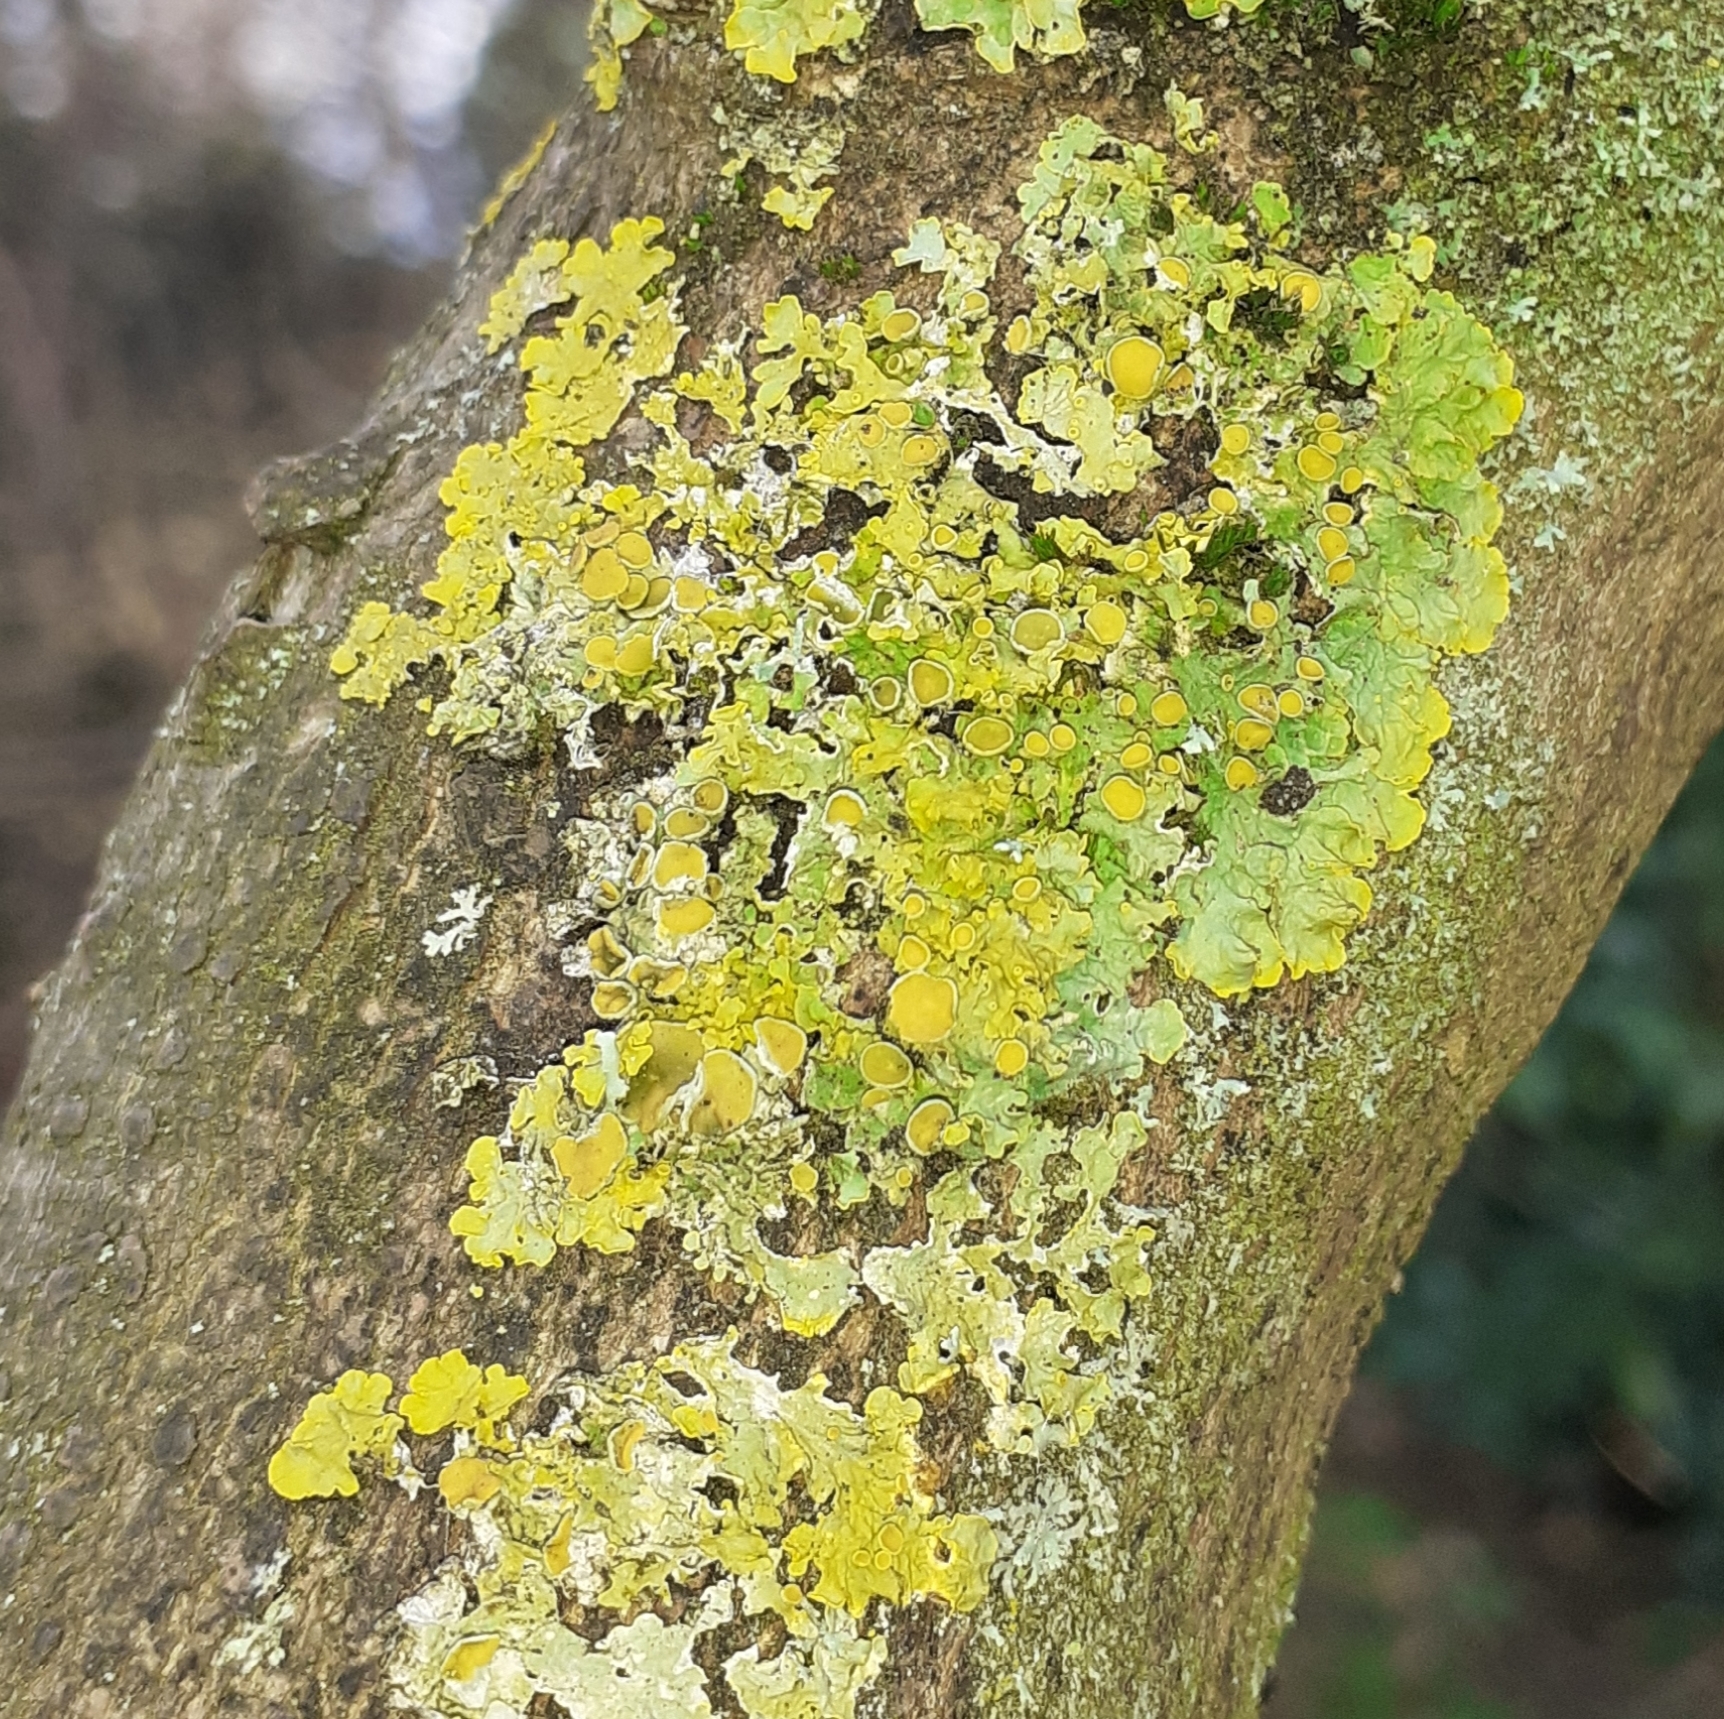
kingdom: Fungi
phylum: Ascomycota
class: Lecanoromycetes
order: Teloschistales
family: Teloschistaceae
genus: Xanthoria
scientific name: Xanthoria parietina
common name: Common orange lichen
